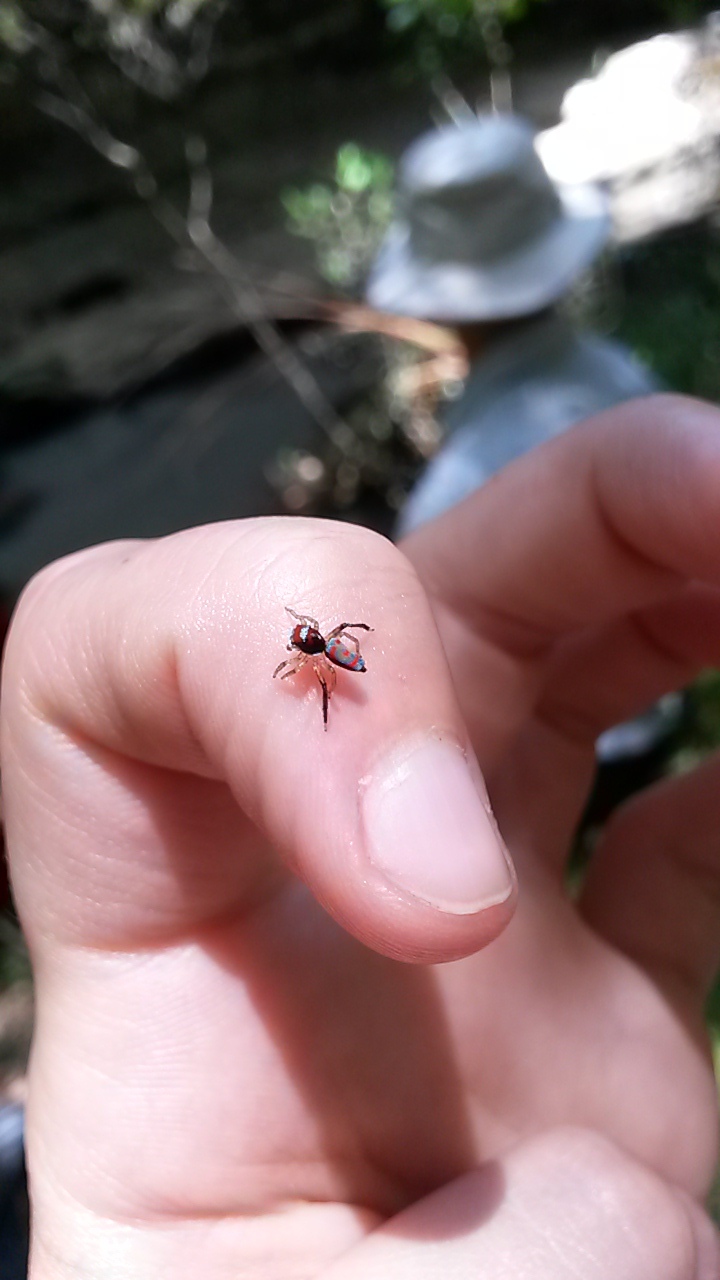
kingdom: Animalia
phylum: Arthropoda
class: Arachnida
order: Araneae
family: Salticidae
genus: Maratus
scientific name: Maratus splendens
